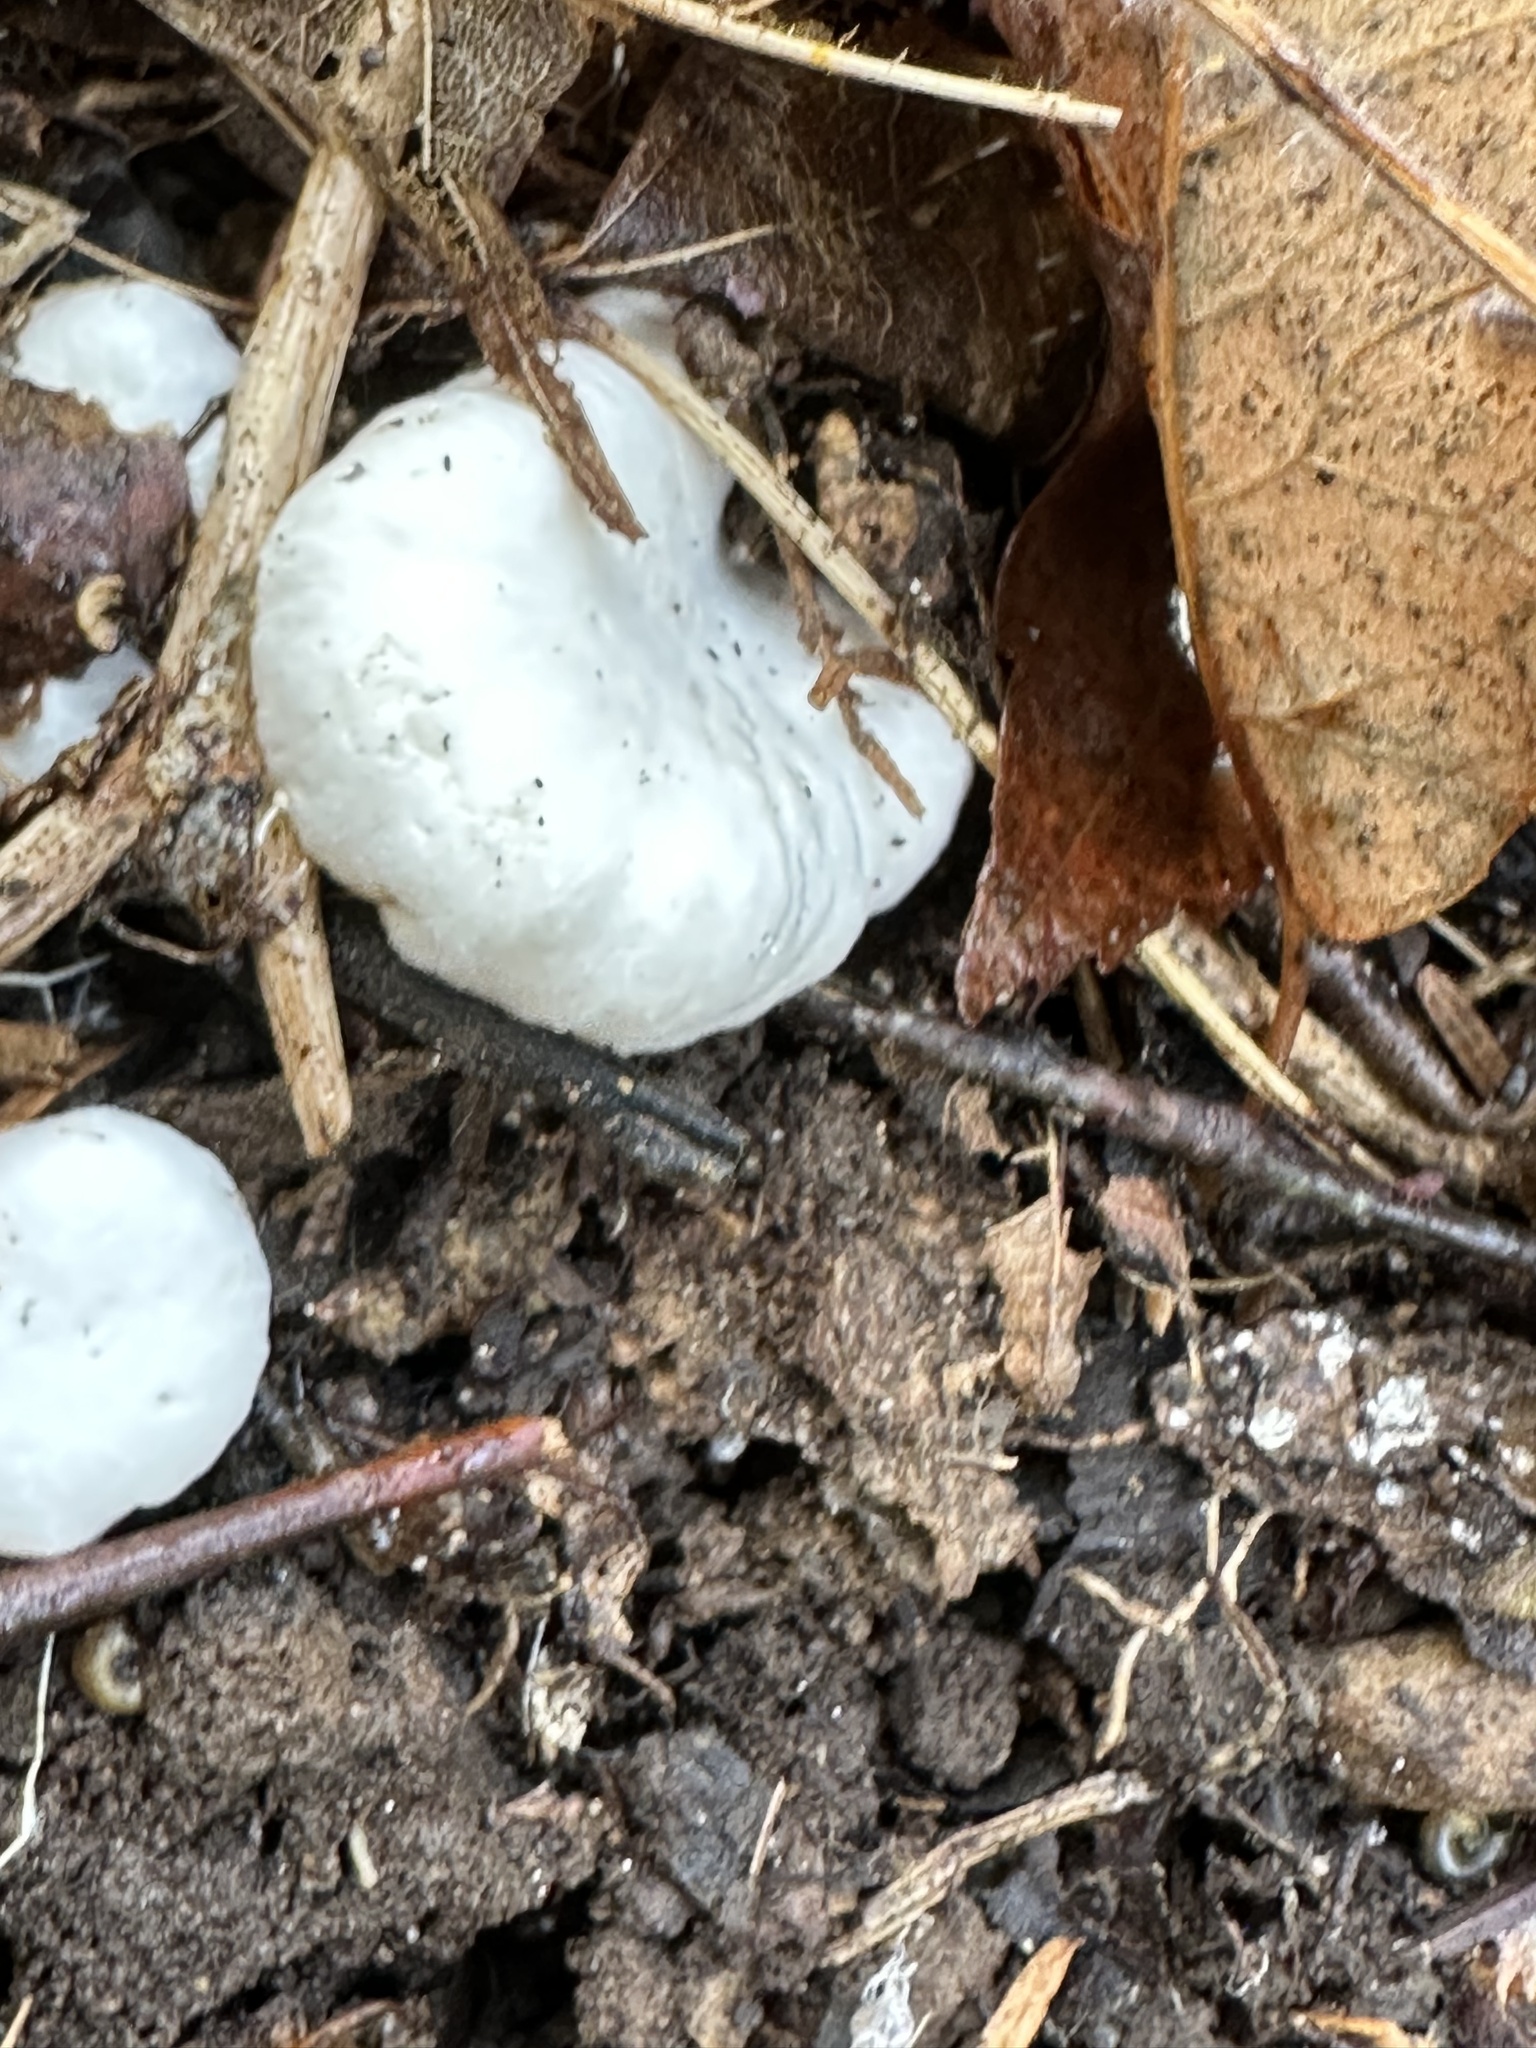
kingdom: Fungi
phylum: Basidiomycota
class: Agaricomycetes
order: Agaricales
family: Entolomataceae
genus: Entoloma
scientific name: Entoloma abortivum
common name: Aborted entoloma
